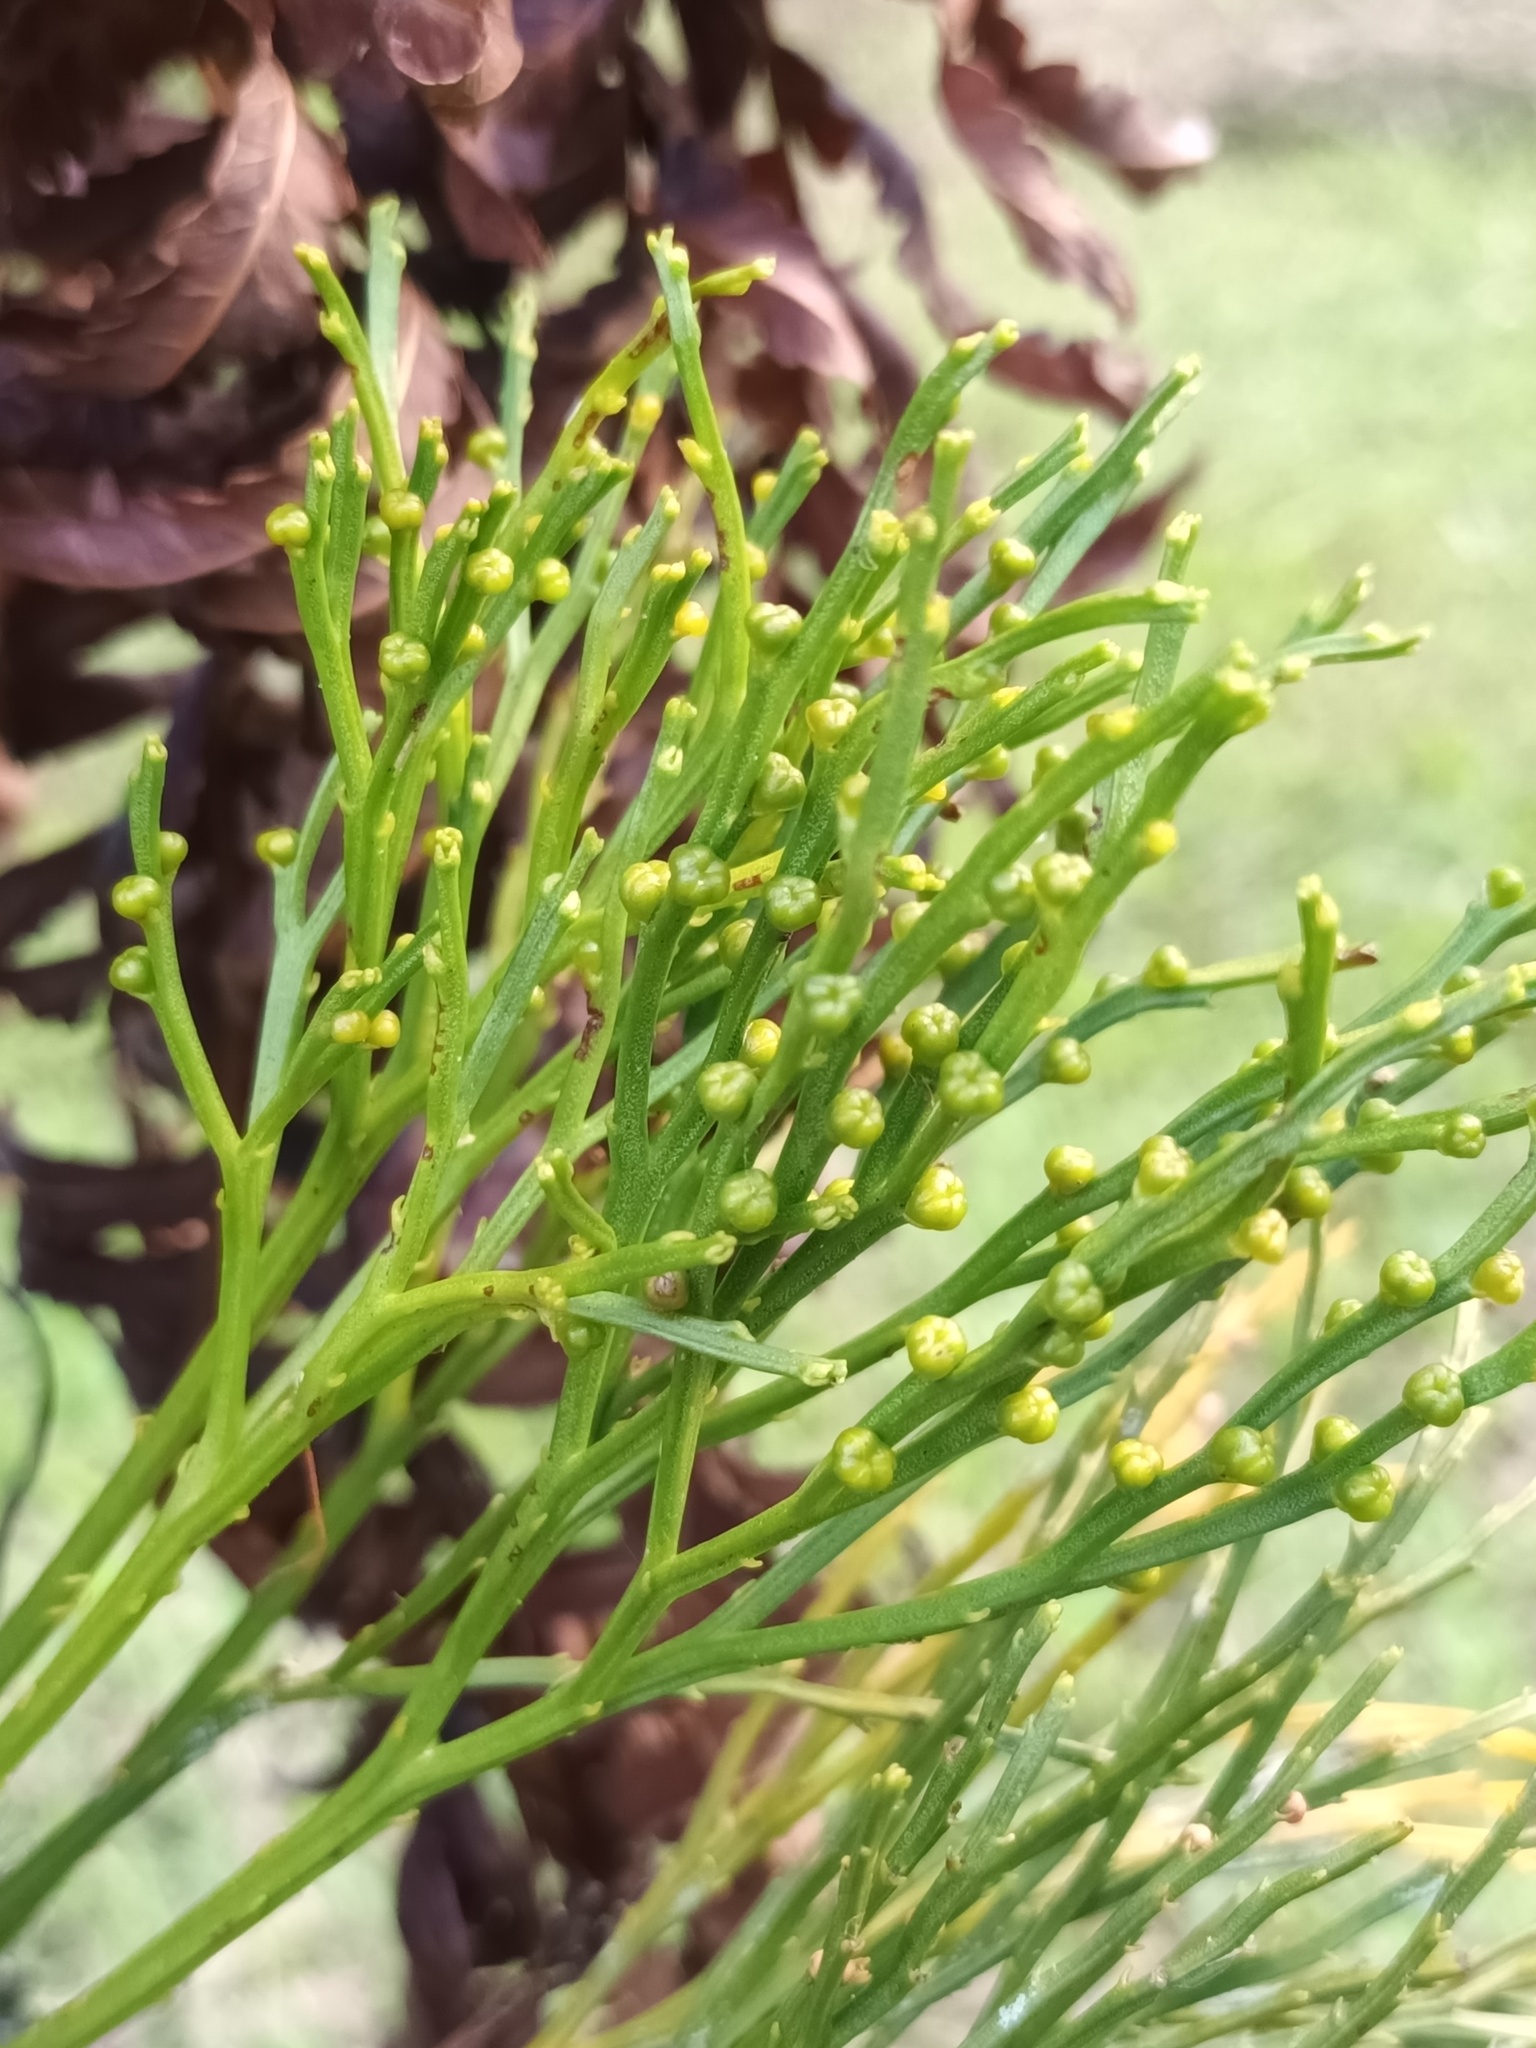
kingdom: Plantae
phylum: Tracheophyta
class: Polypodiopsida
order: Psilotales
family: Psilotaceae
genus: Psilotum
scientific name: Psilotum nudum
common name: Skeleton fork fern
